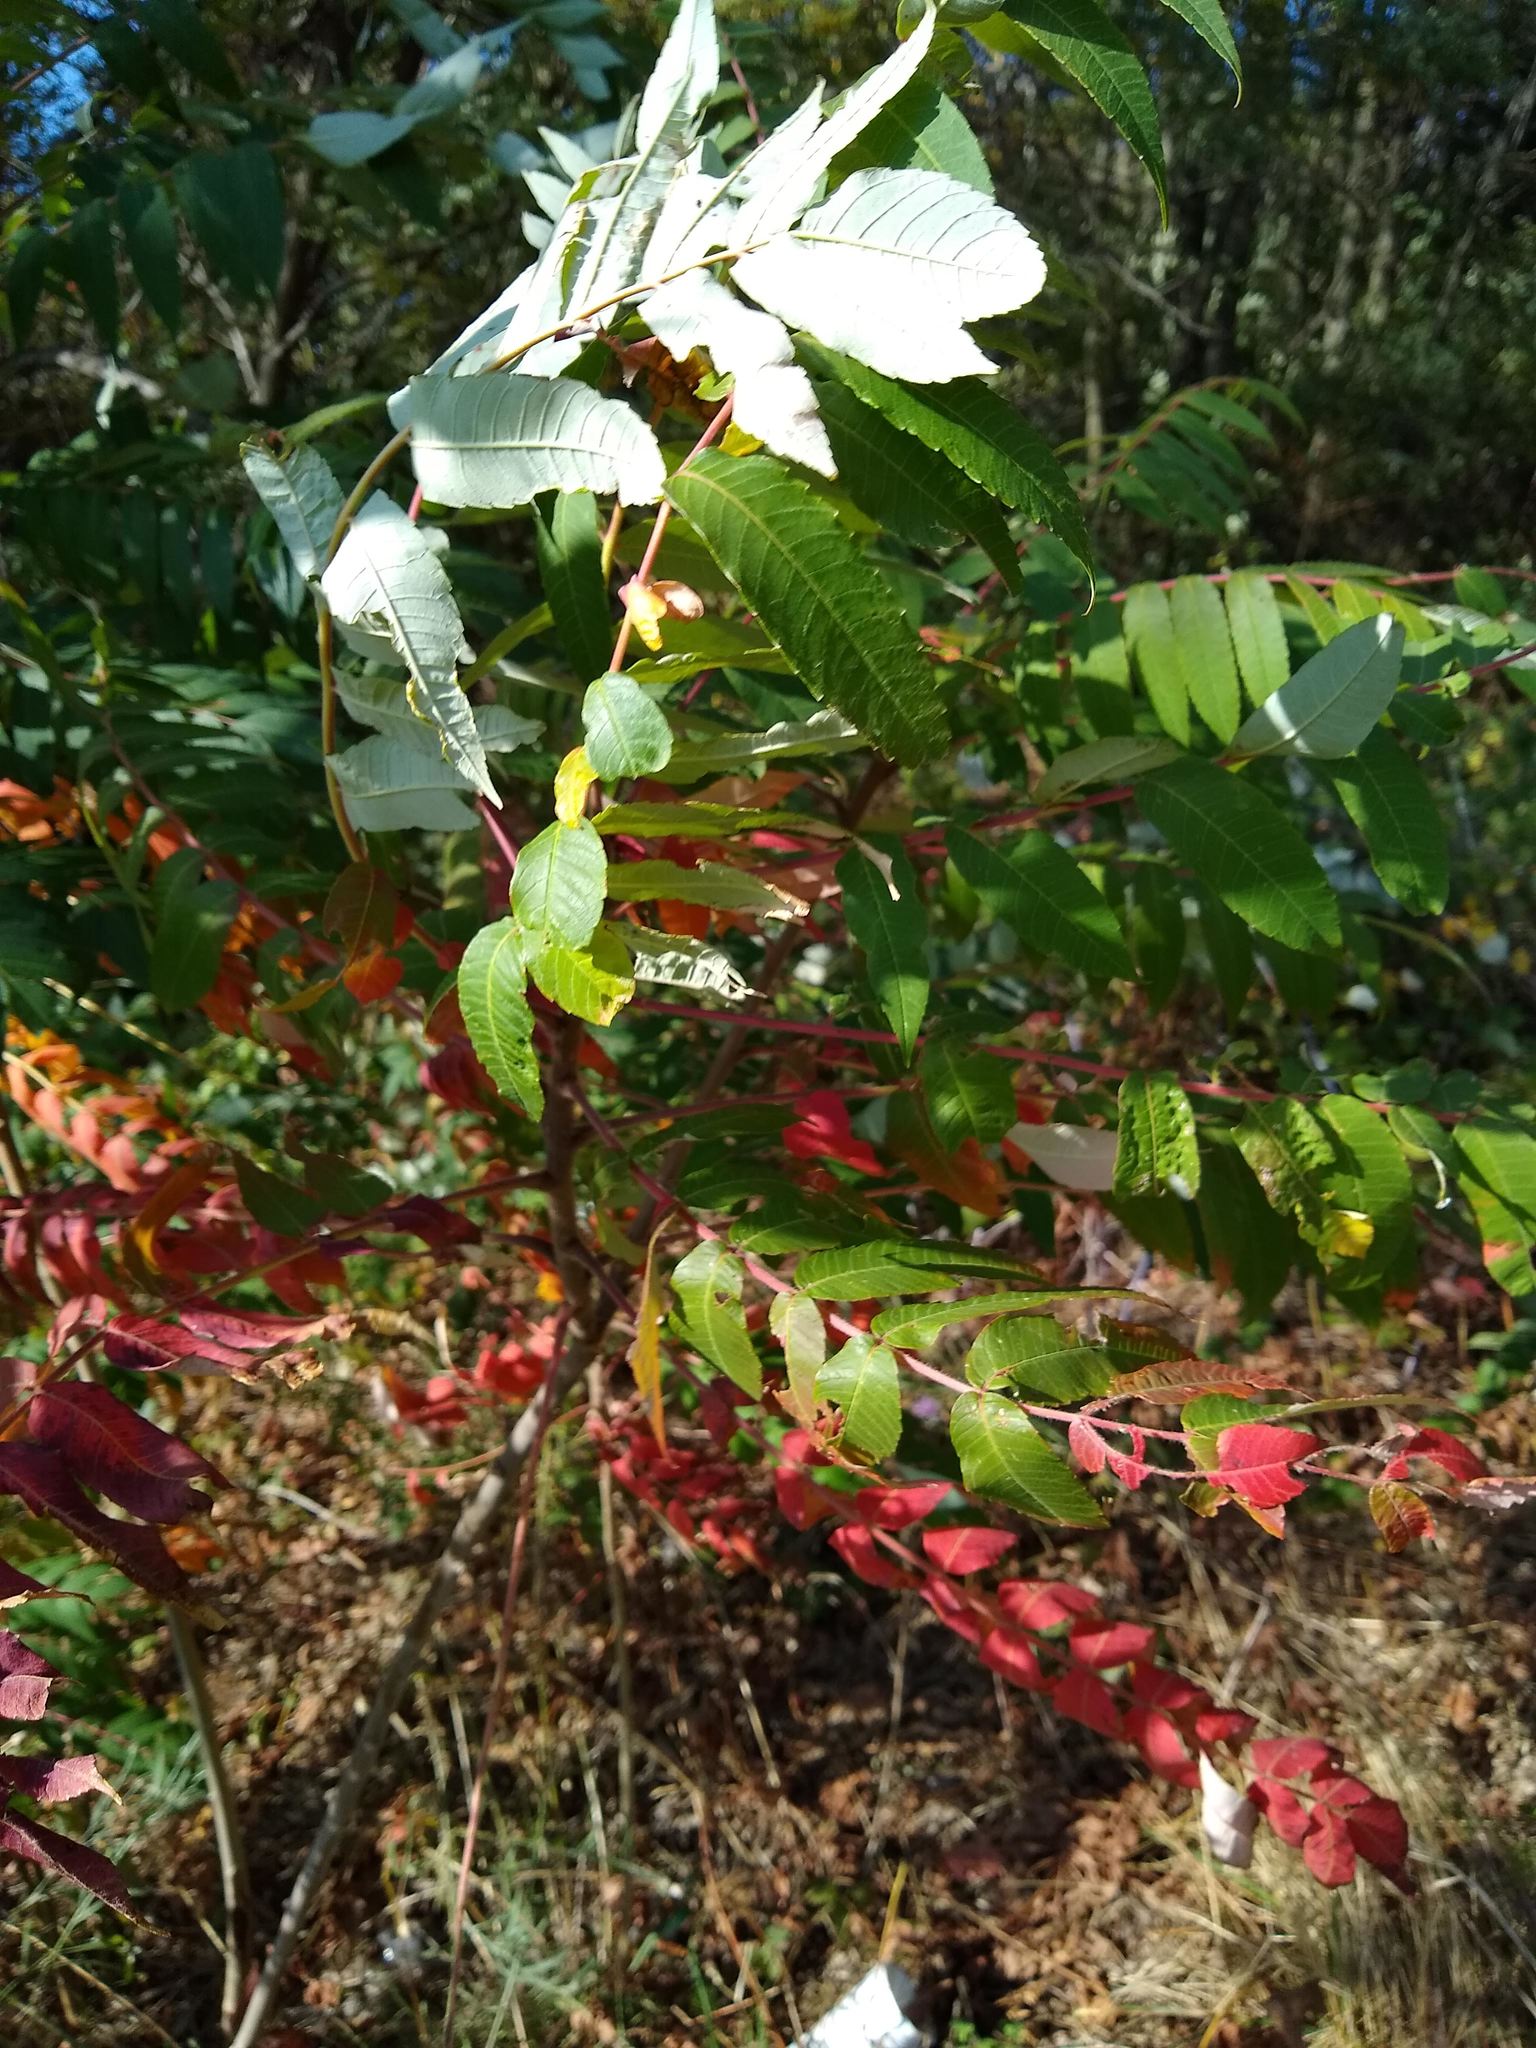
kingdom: Plantae
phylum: Tracheophyta
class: Magnoliopsida
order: Sapindales
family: Anacardiaceae
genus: Rhus
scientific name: Rhus typhina
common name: Staghorn sumac
